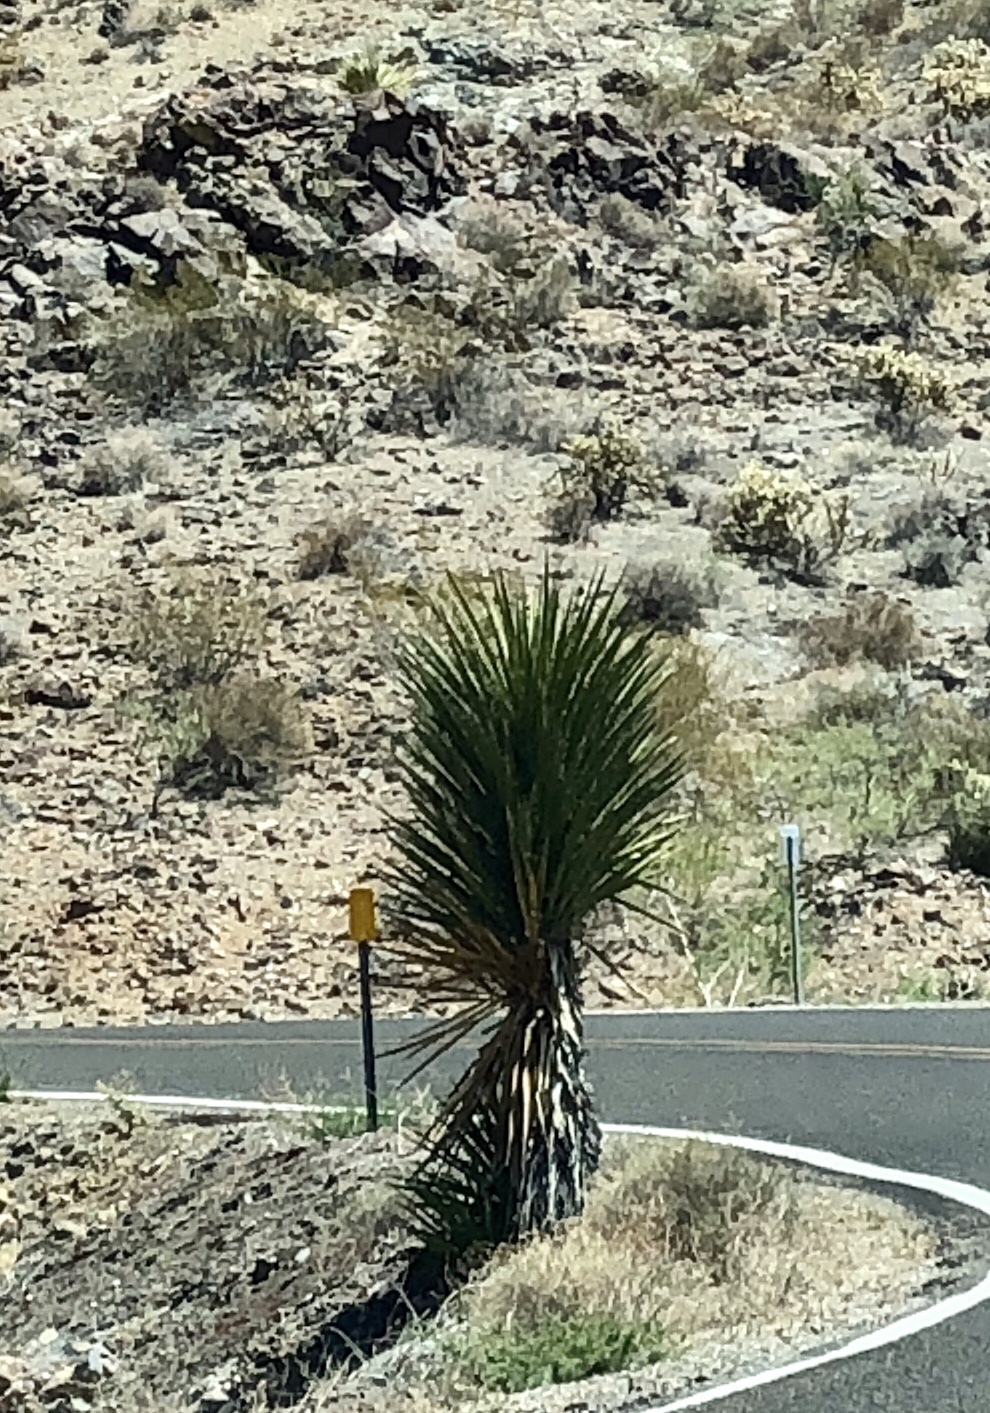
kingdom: Plantae
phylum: Tracheophyta
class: Liliopsida
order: Asparagales
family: Asparagaceae
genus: Yucca
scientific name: Yucca schidigera
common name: Mojave yucca
